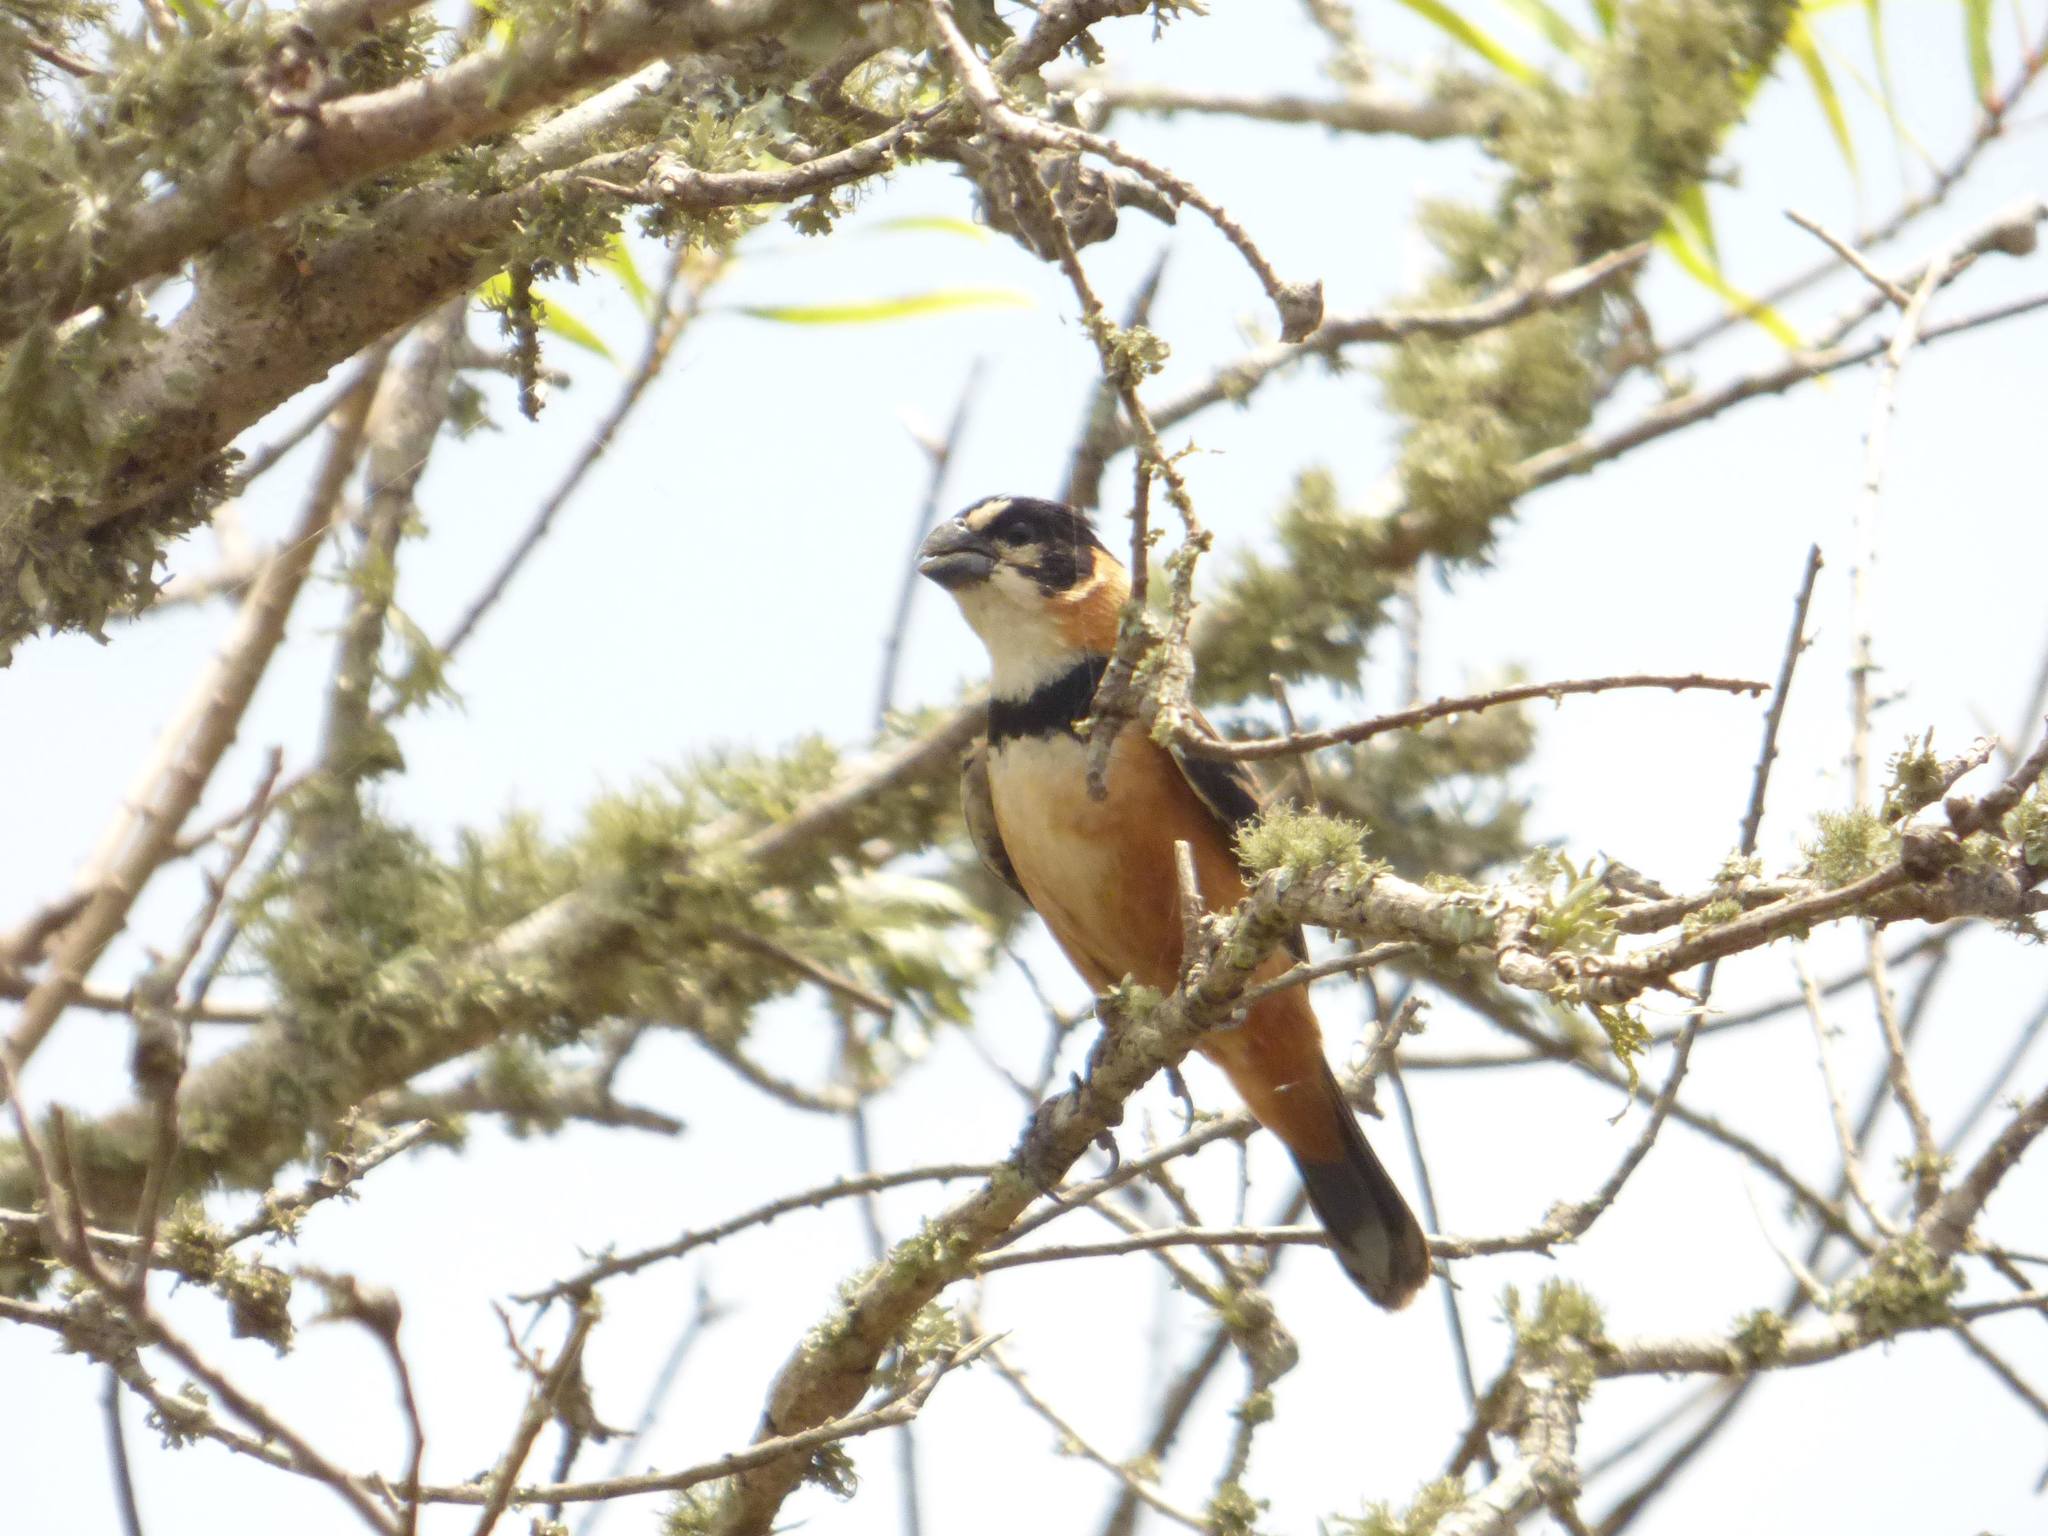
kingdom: Animalia
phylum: Chordata
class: Aves
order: Passeriformes
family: Thraupidae
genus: Sporophila
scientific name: Sporophila collaris
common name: Rusty-collared seedeater
